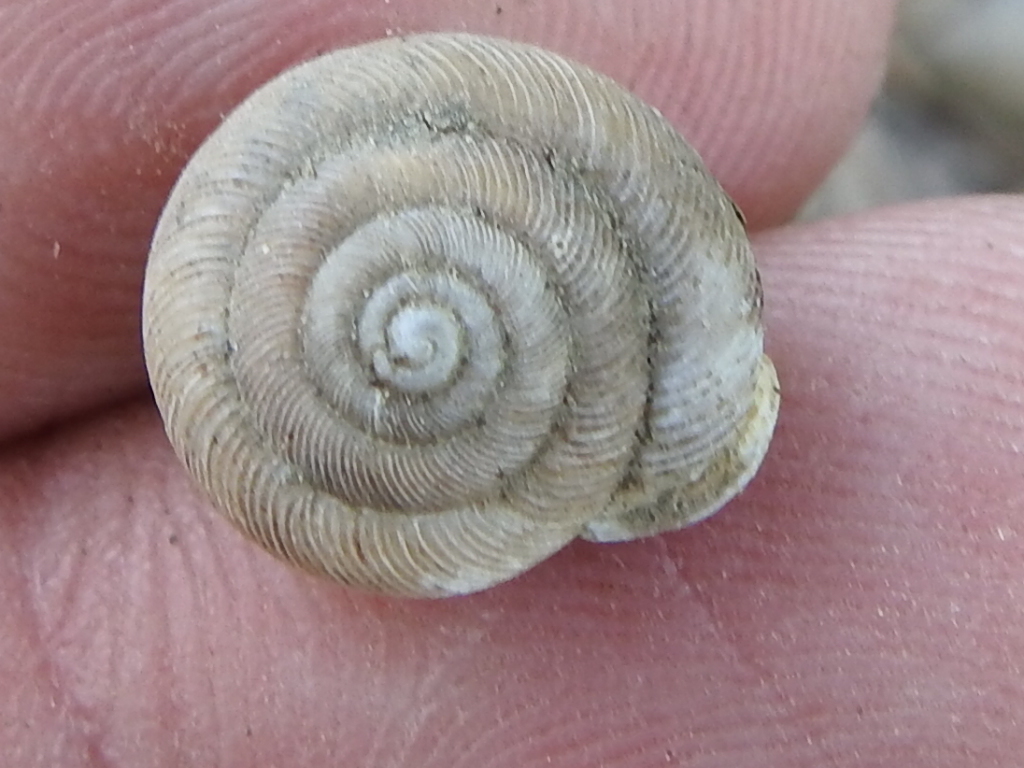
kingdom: Animalia
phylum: Mollusca
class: Gastropoda
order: Stylommatophora
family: Polygyridae
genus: Triodopsis
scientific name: Triodopsis hopetonensis
